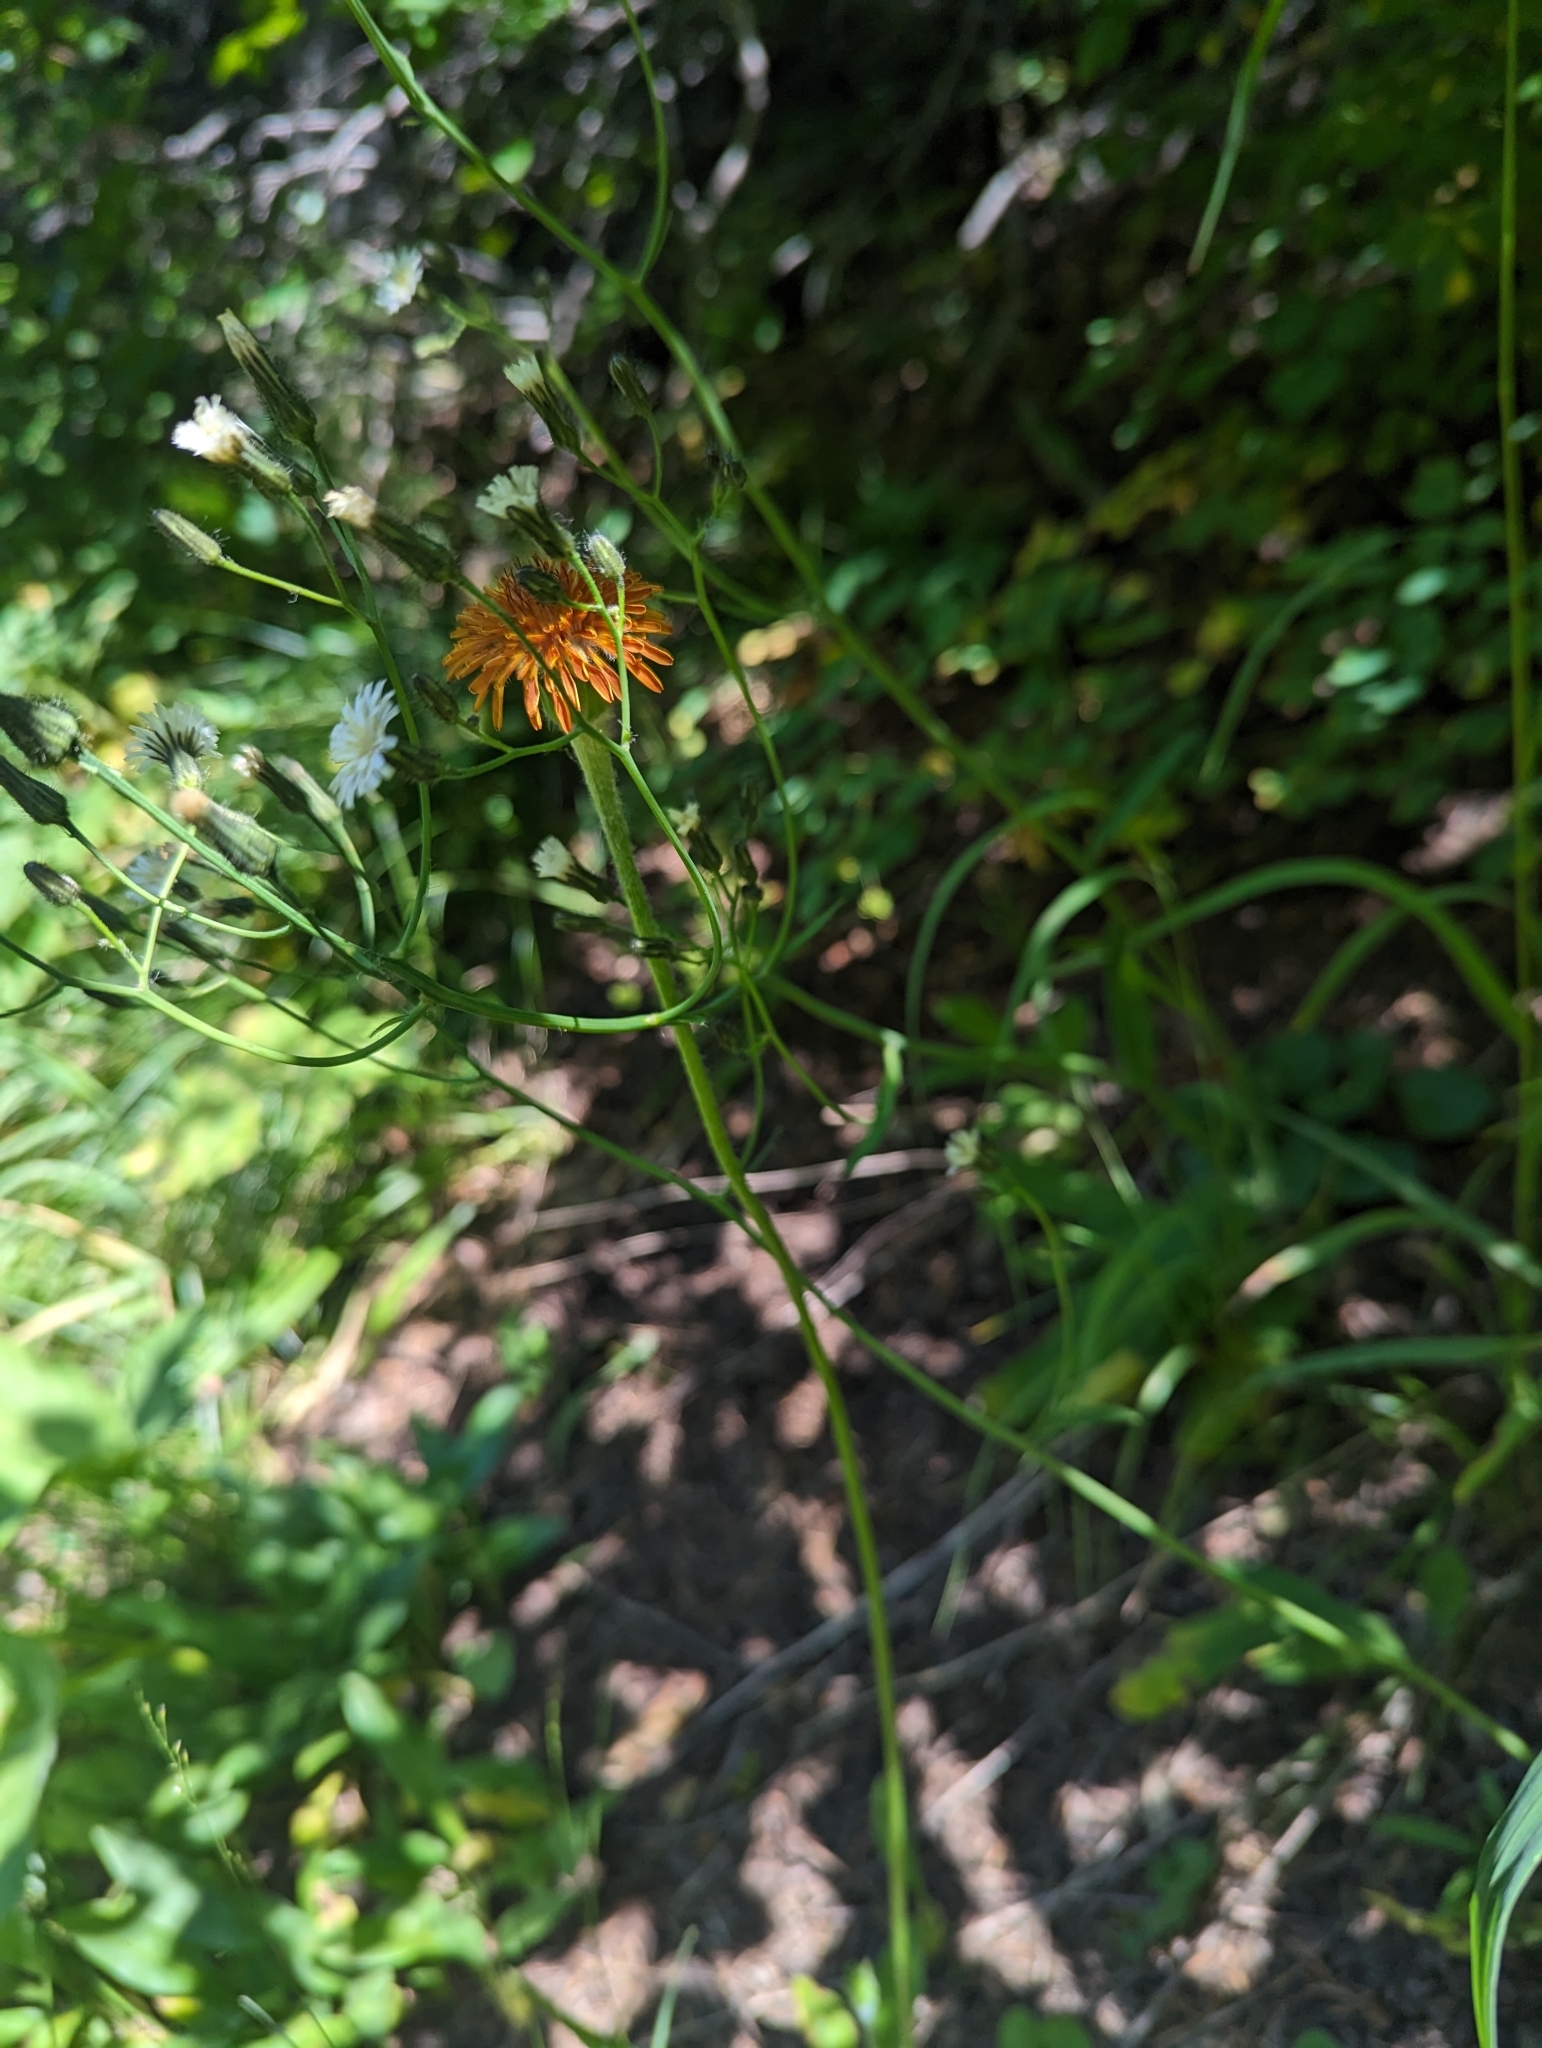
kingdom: Plantae
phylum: Tracheophyta
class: Magnoliopsida
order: Asterales
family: Asteraceae
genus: Agoseris
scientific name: Agoseris aurantiaca
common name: Mountain agoseris
